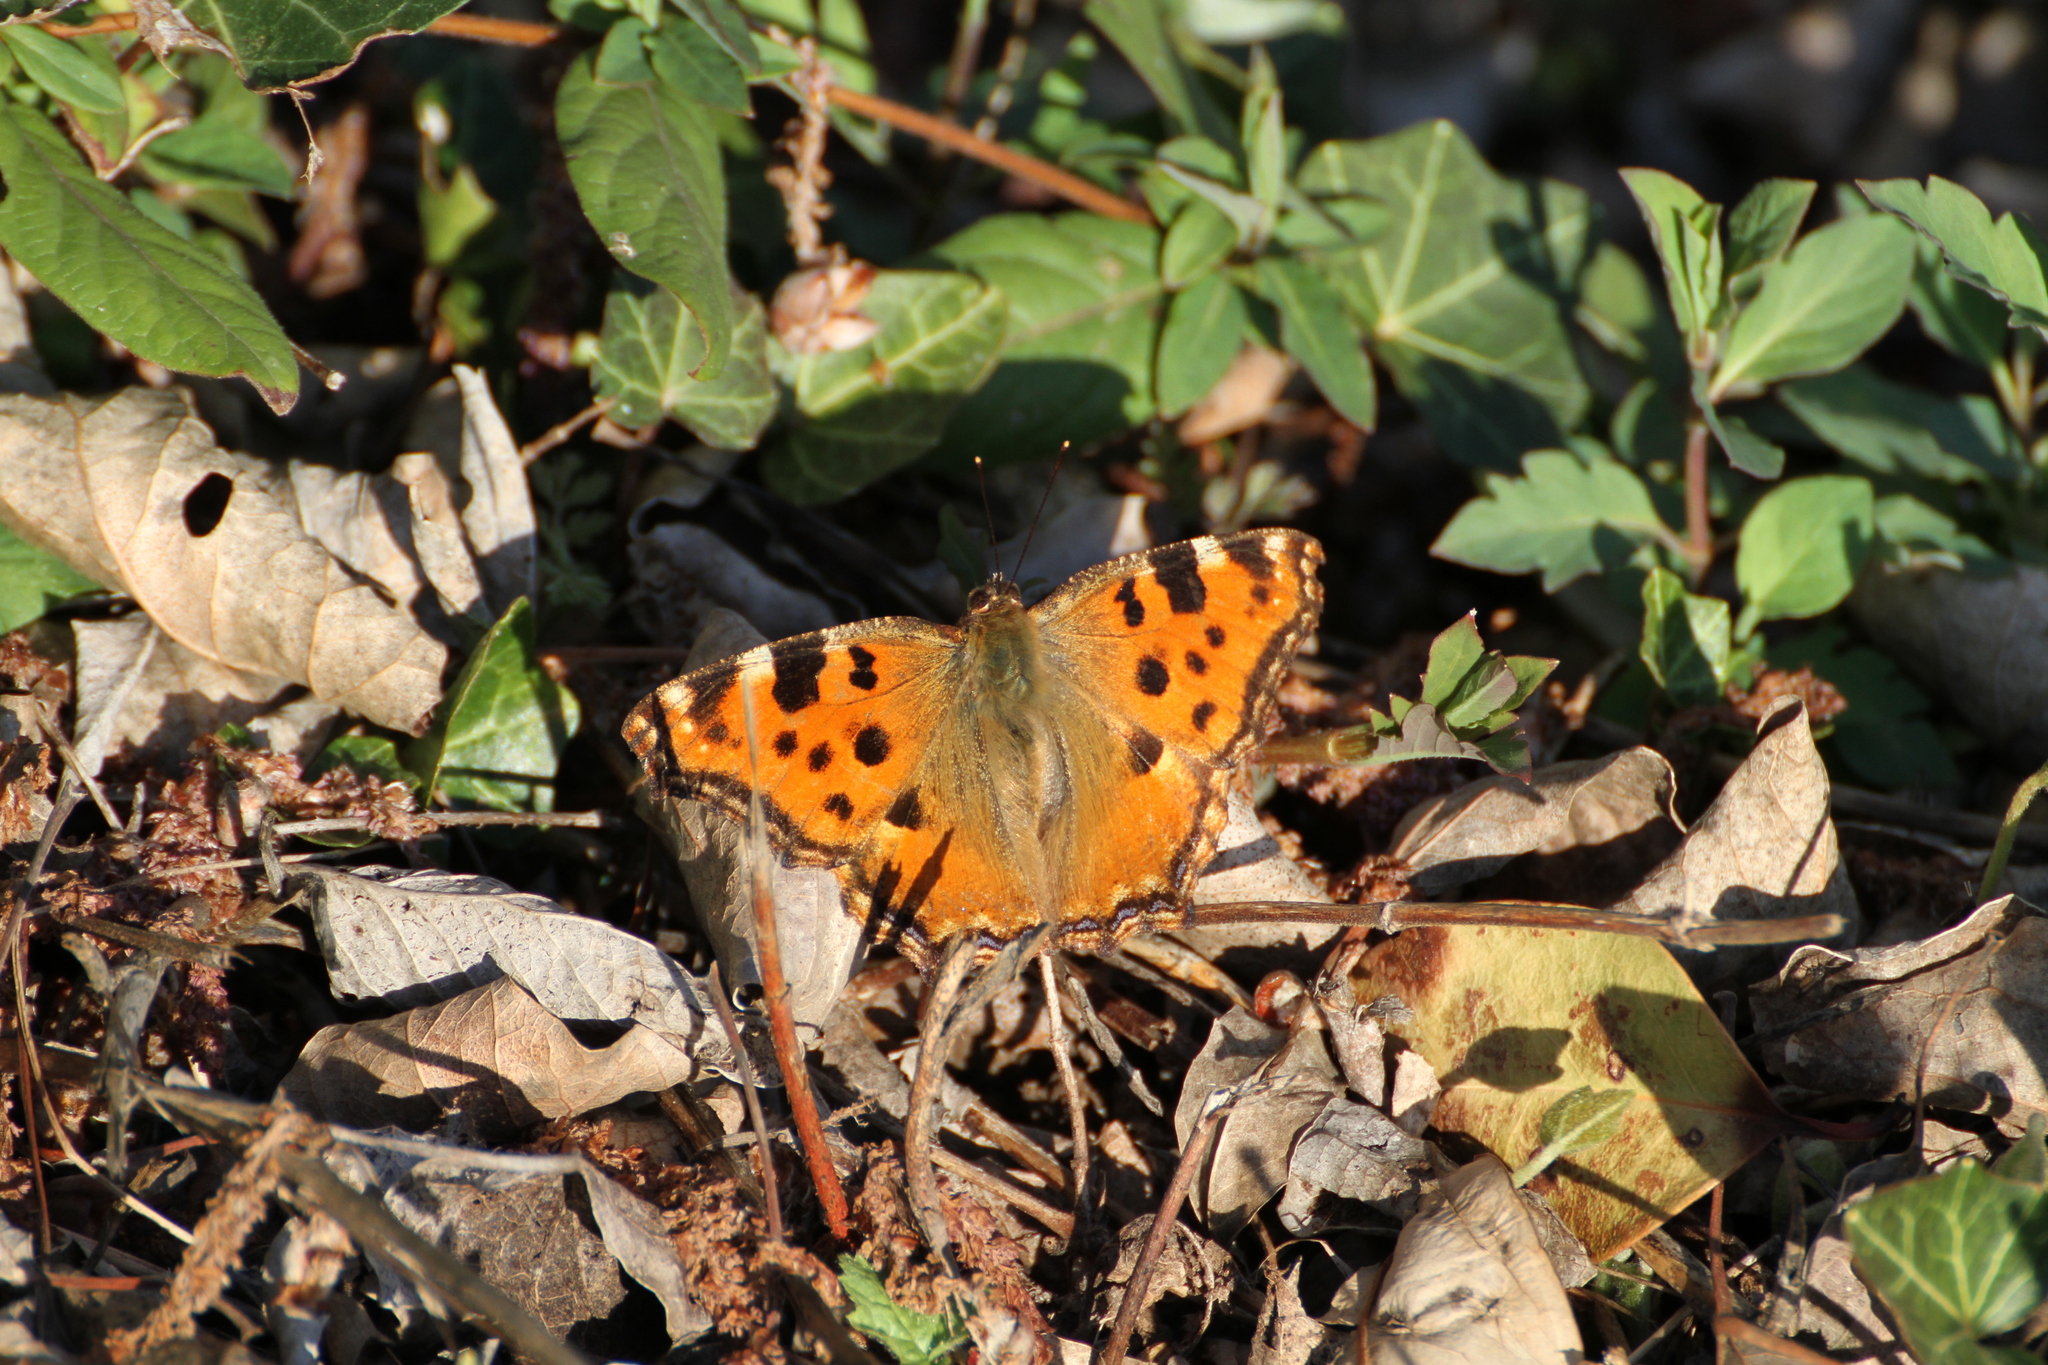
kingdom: Animalia
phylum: Arthropoda
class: Insecta
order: Lepidoptera
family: Nymphalidae
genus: Nymphalis
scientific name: Nymphalis polychloros
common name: Large tortoiseshell
